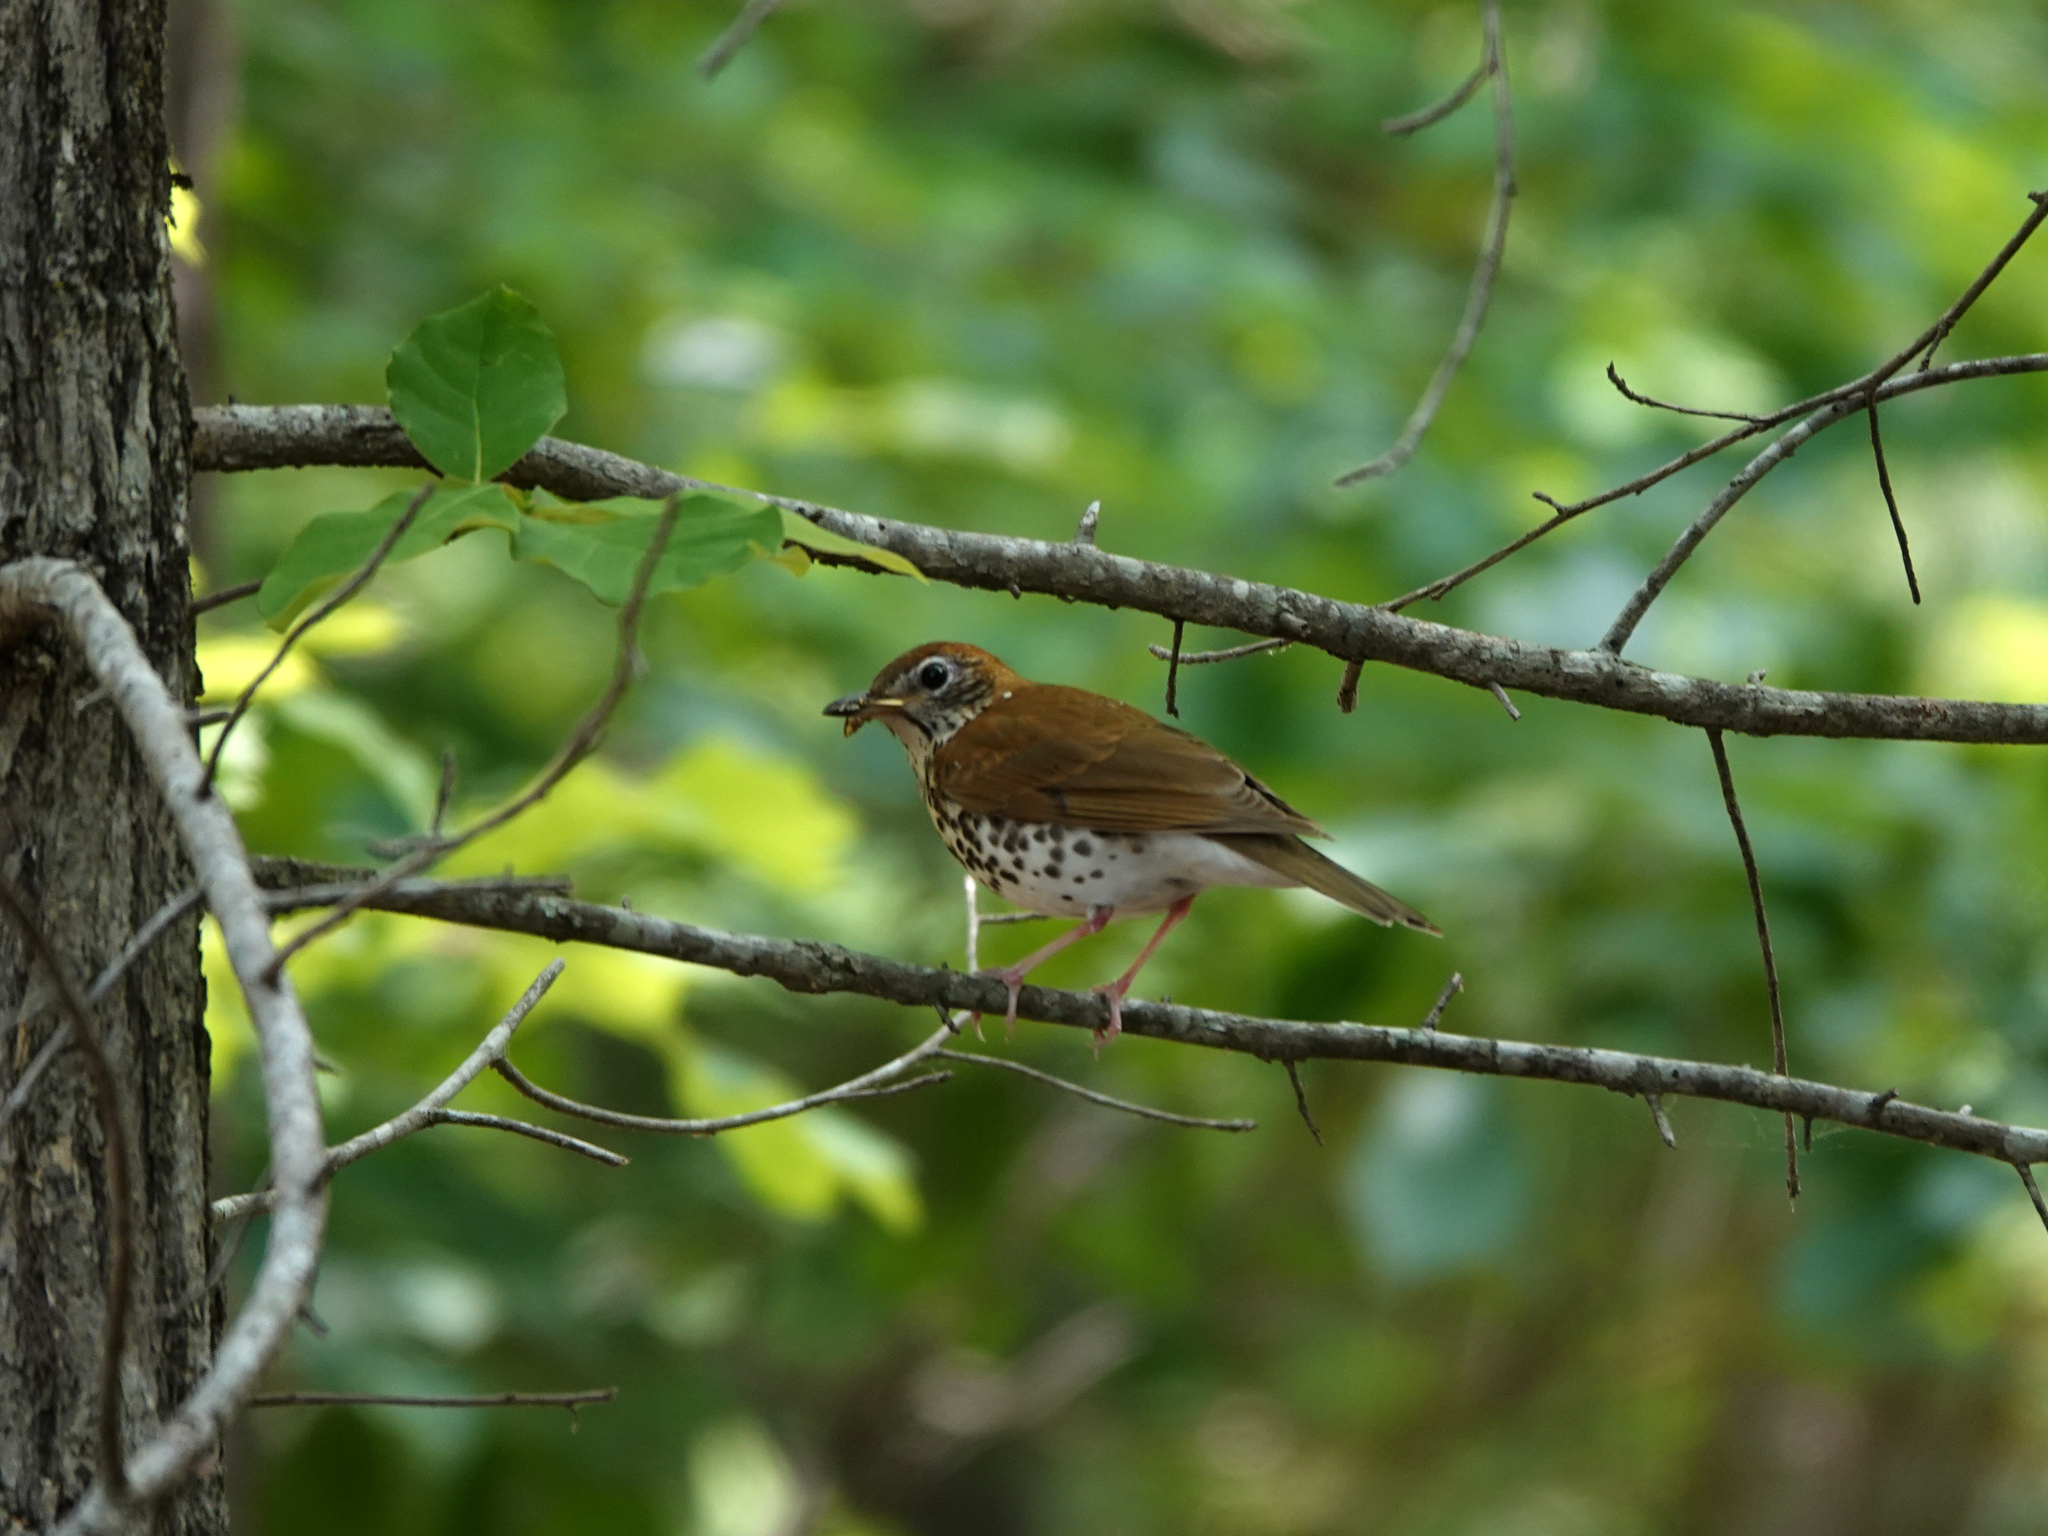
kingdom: Animalia
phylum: Chordata
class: Aves
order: Passeriformes
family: Turdidae
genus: Hylocichla
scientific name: Hylocichla mustelina
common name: Wood thrush
